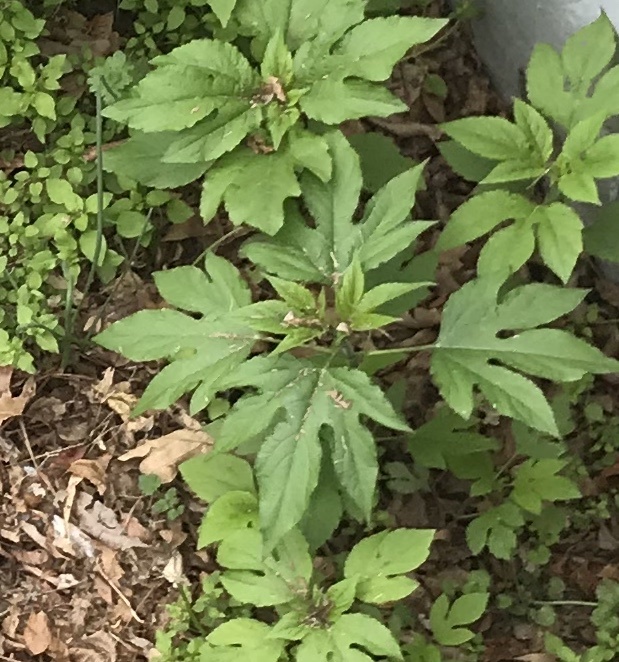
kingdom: Plantae
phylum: Tracheophyta
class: Magnoliopsida
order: Asterales
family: Asteraceae
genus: Ambrosia
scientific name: Ambrosia trifida
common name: Giant ragweed
